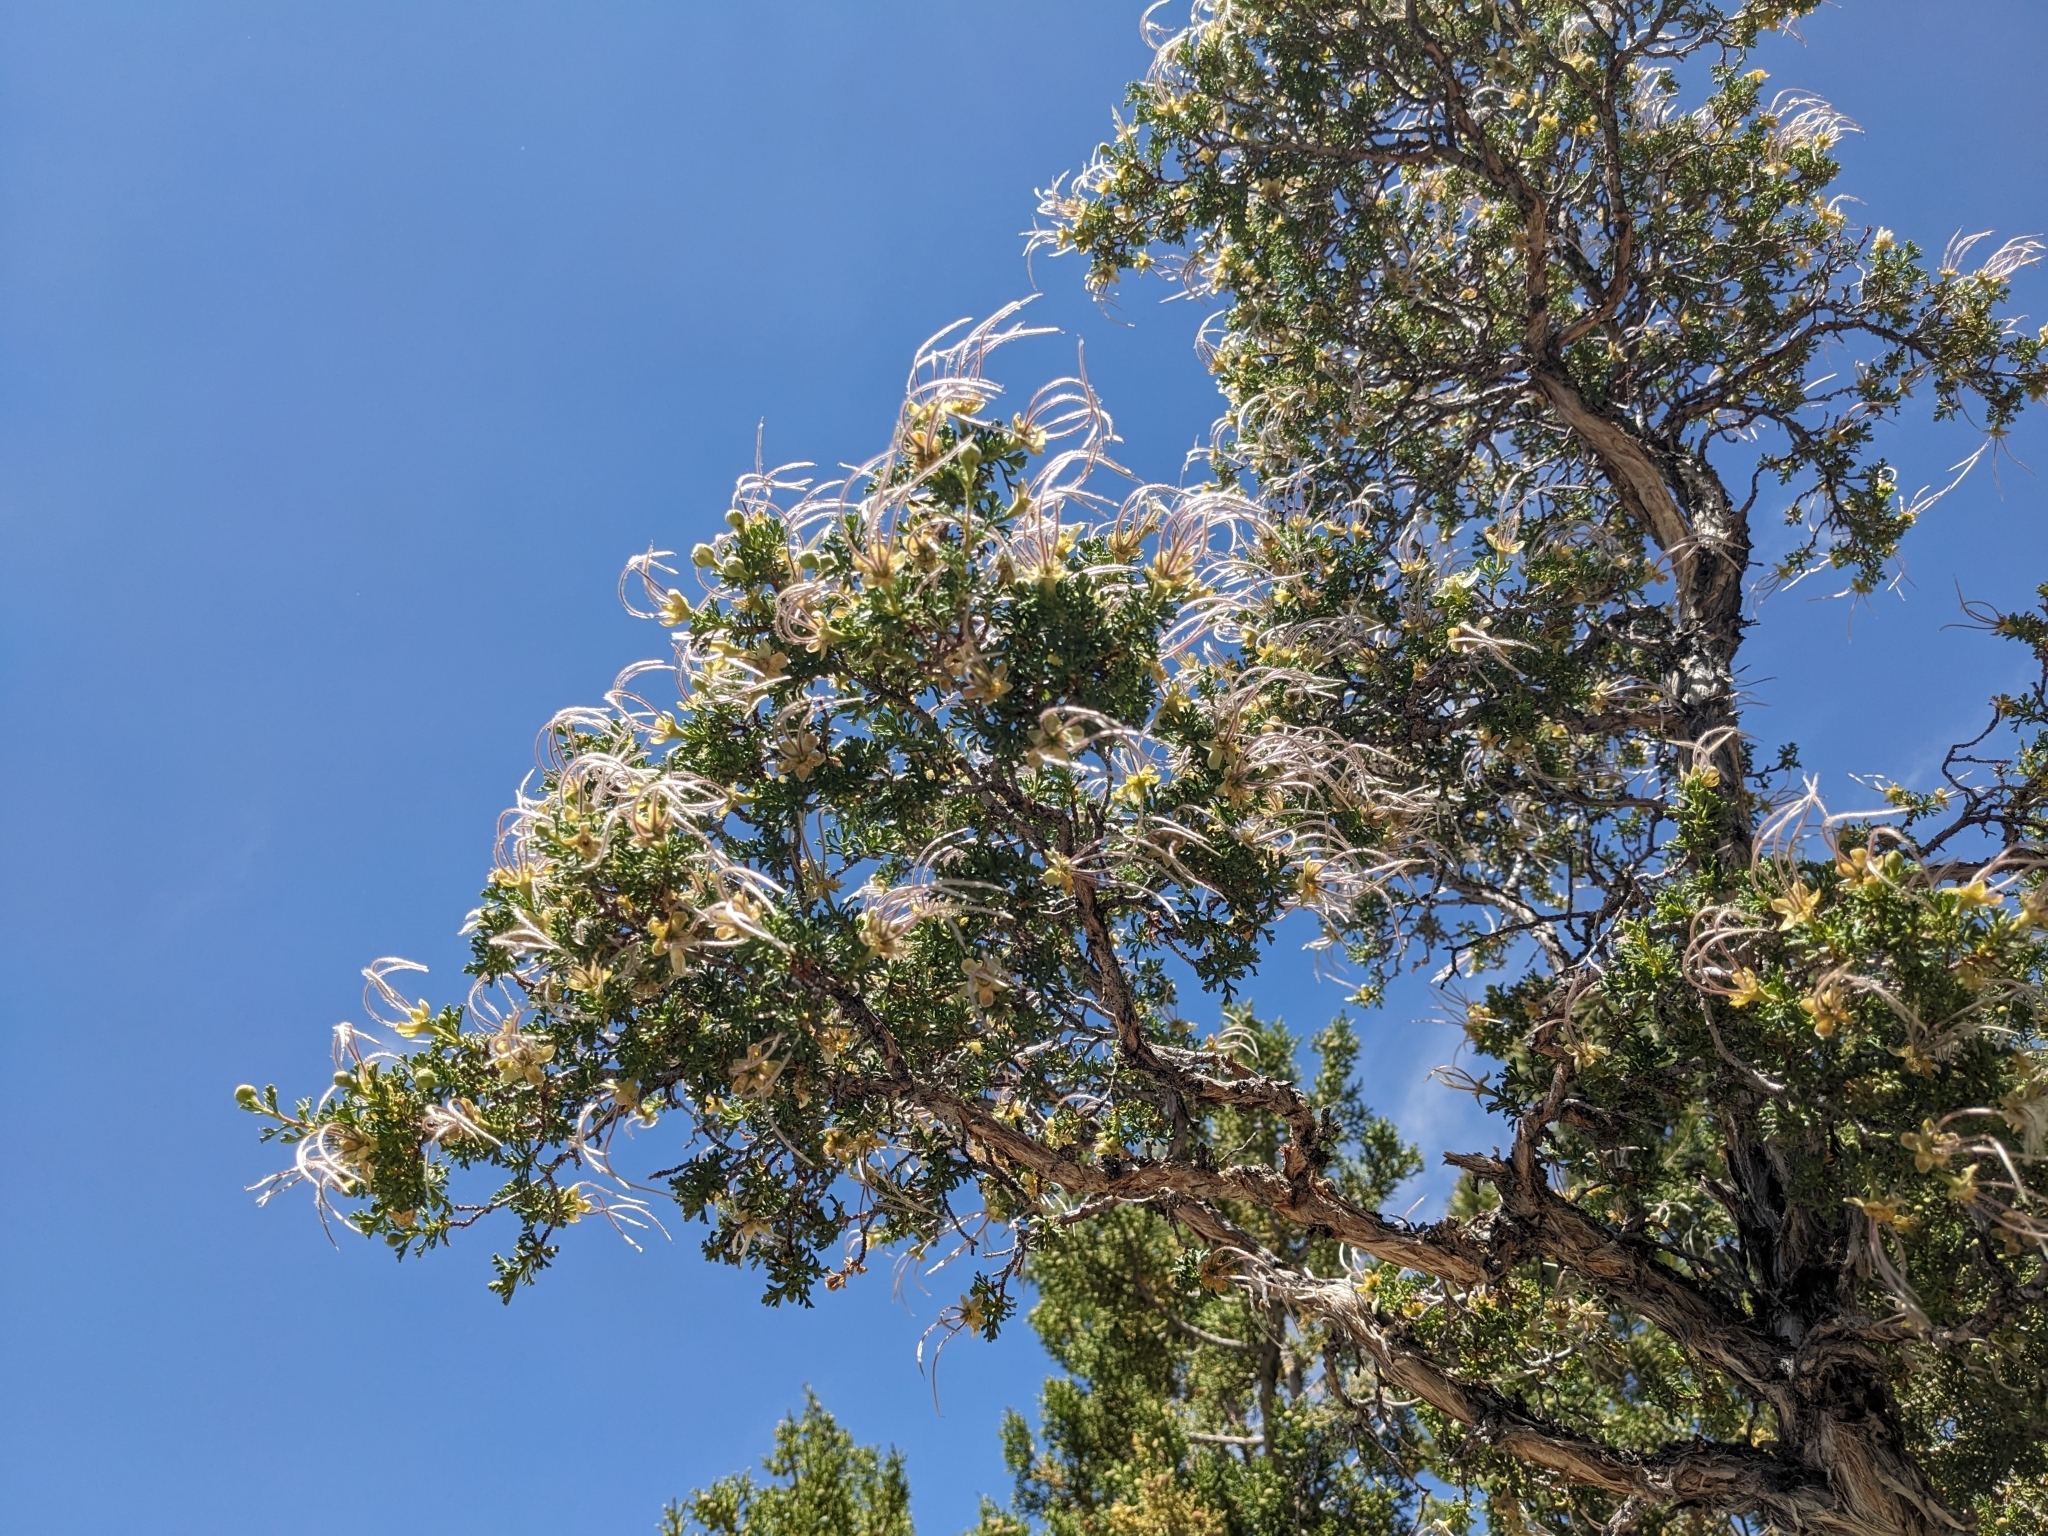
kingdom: Plantae
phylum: Tracheophyta
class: Magnoliopsida
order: Rosales
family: Rosaceae
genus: Purshia
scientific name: Purshia stansburiana
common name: Stansbury's cliffrose
